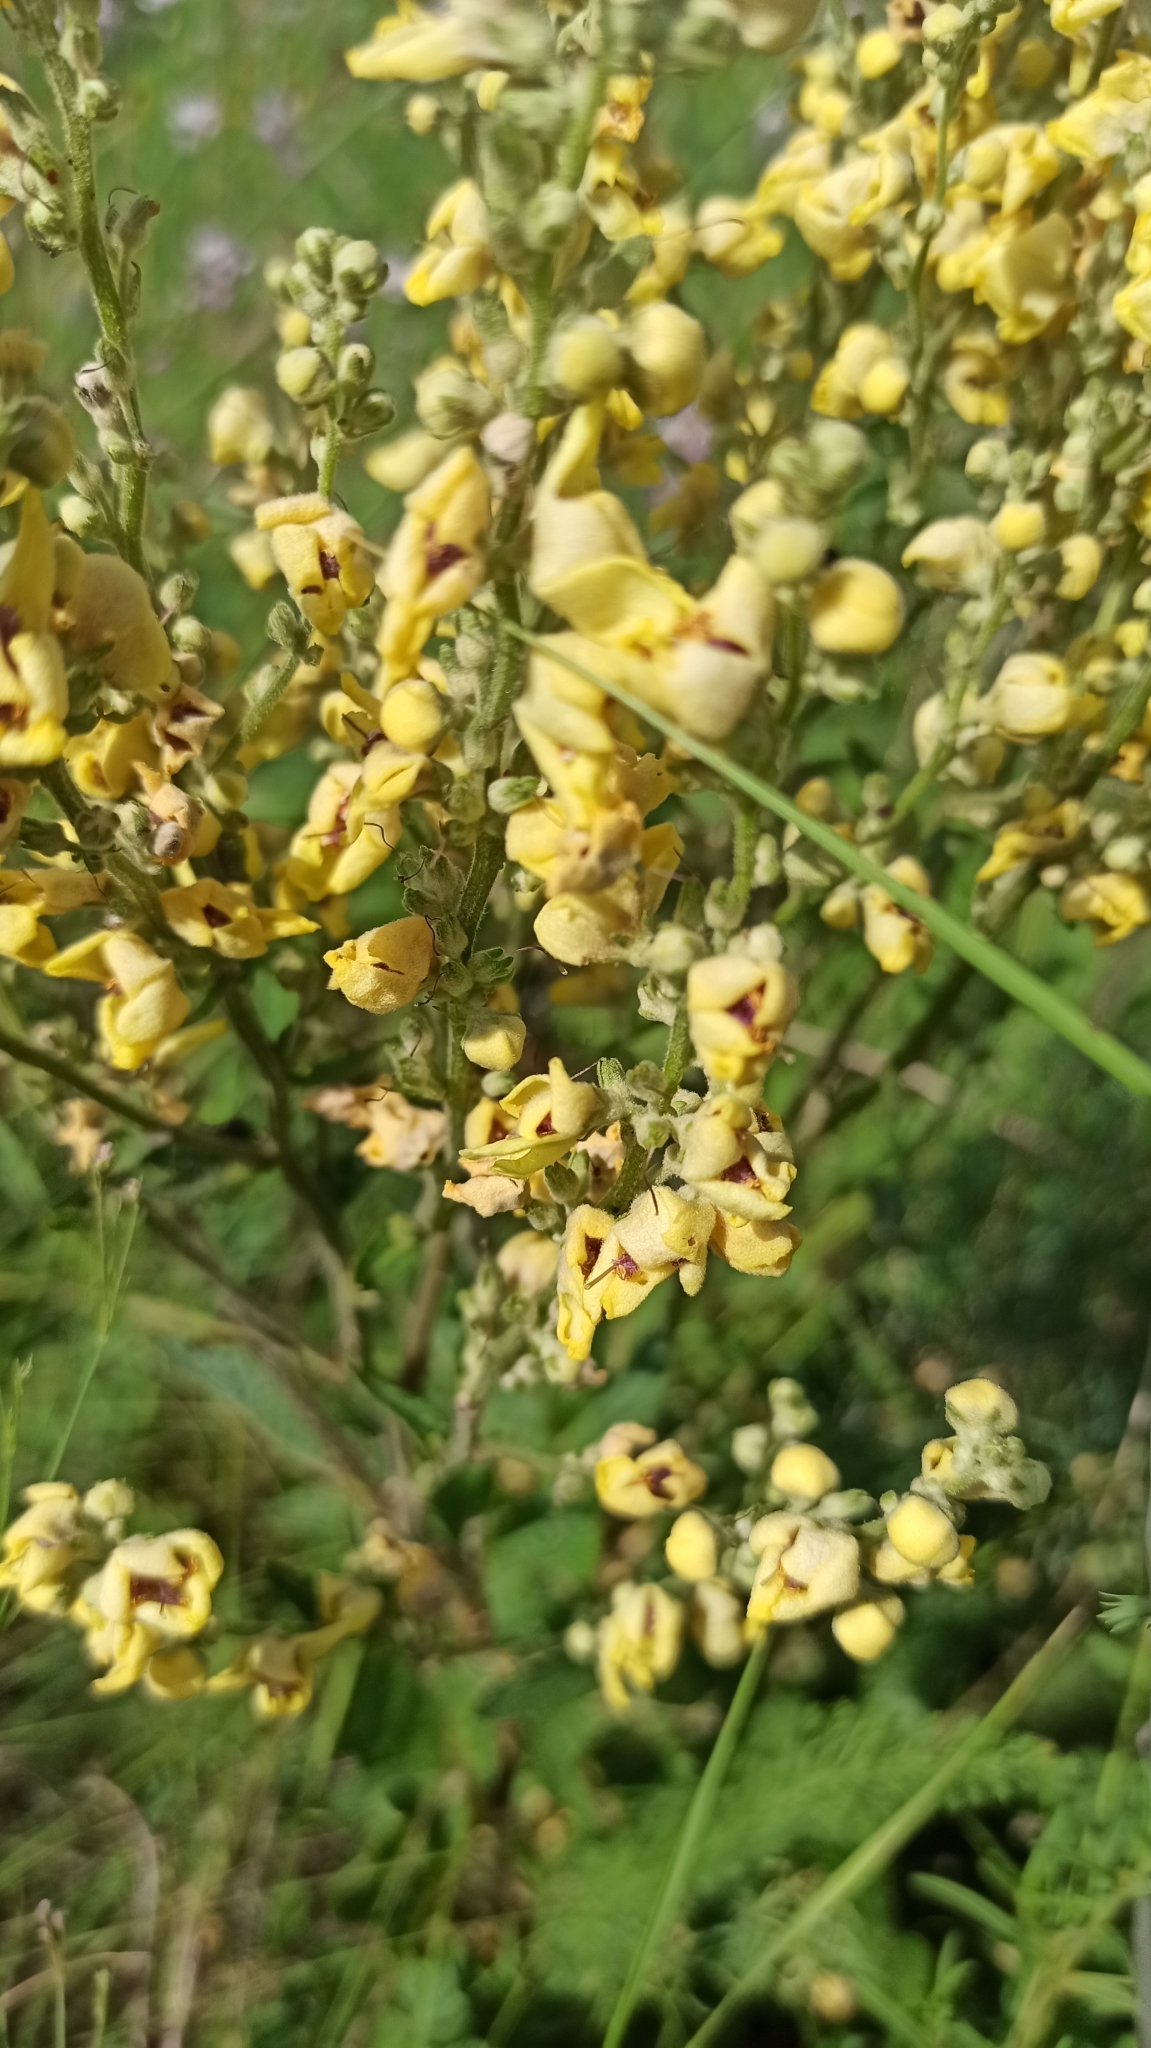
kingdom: Plantae
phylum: Tracheophyta
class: Magnoliopsida
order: Lamiales
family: Scrophulariaceae
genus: Verbascum
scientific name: Verbascum lychnitis
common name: White mullein
